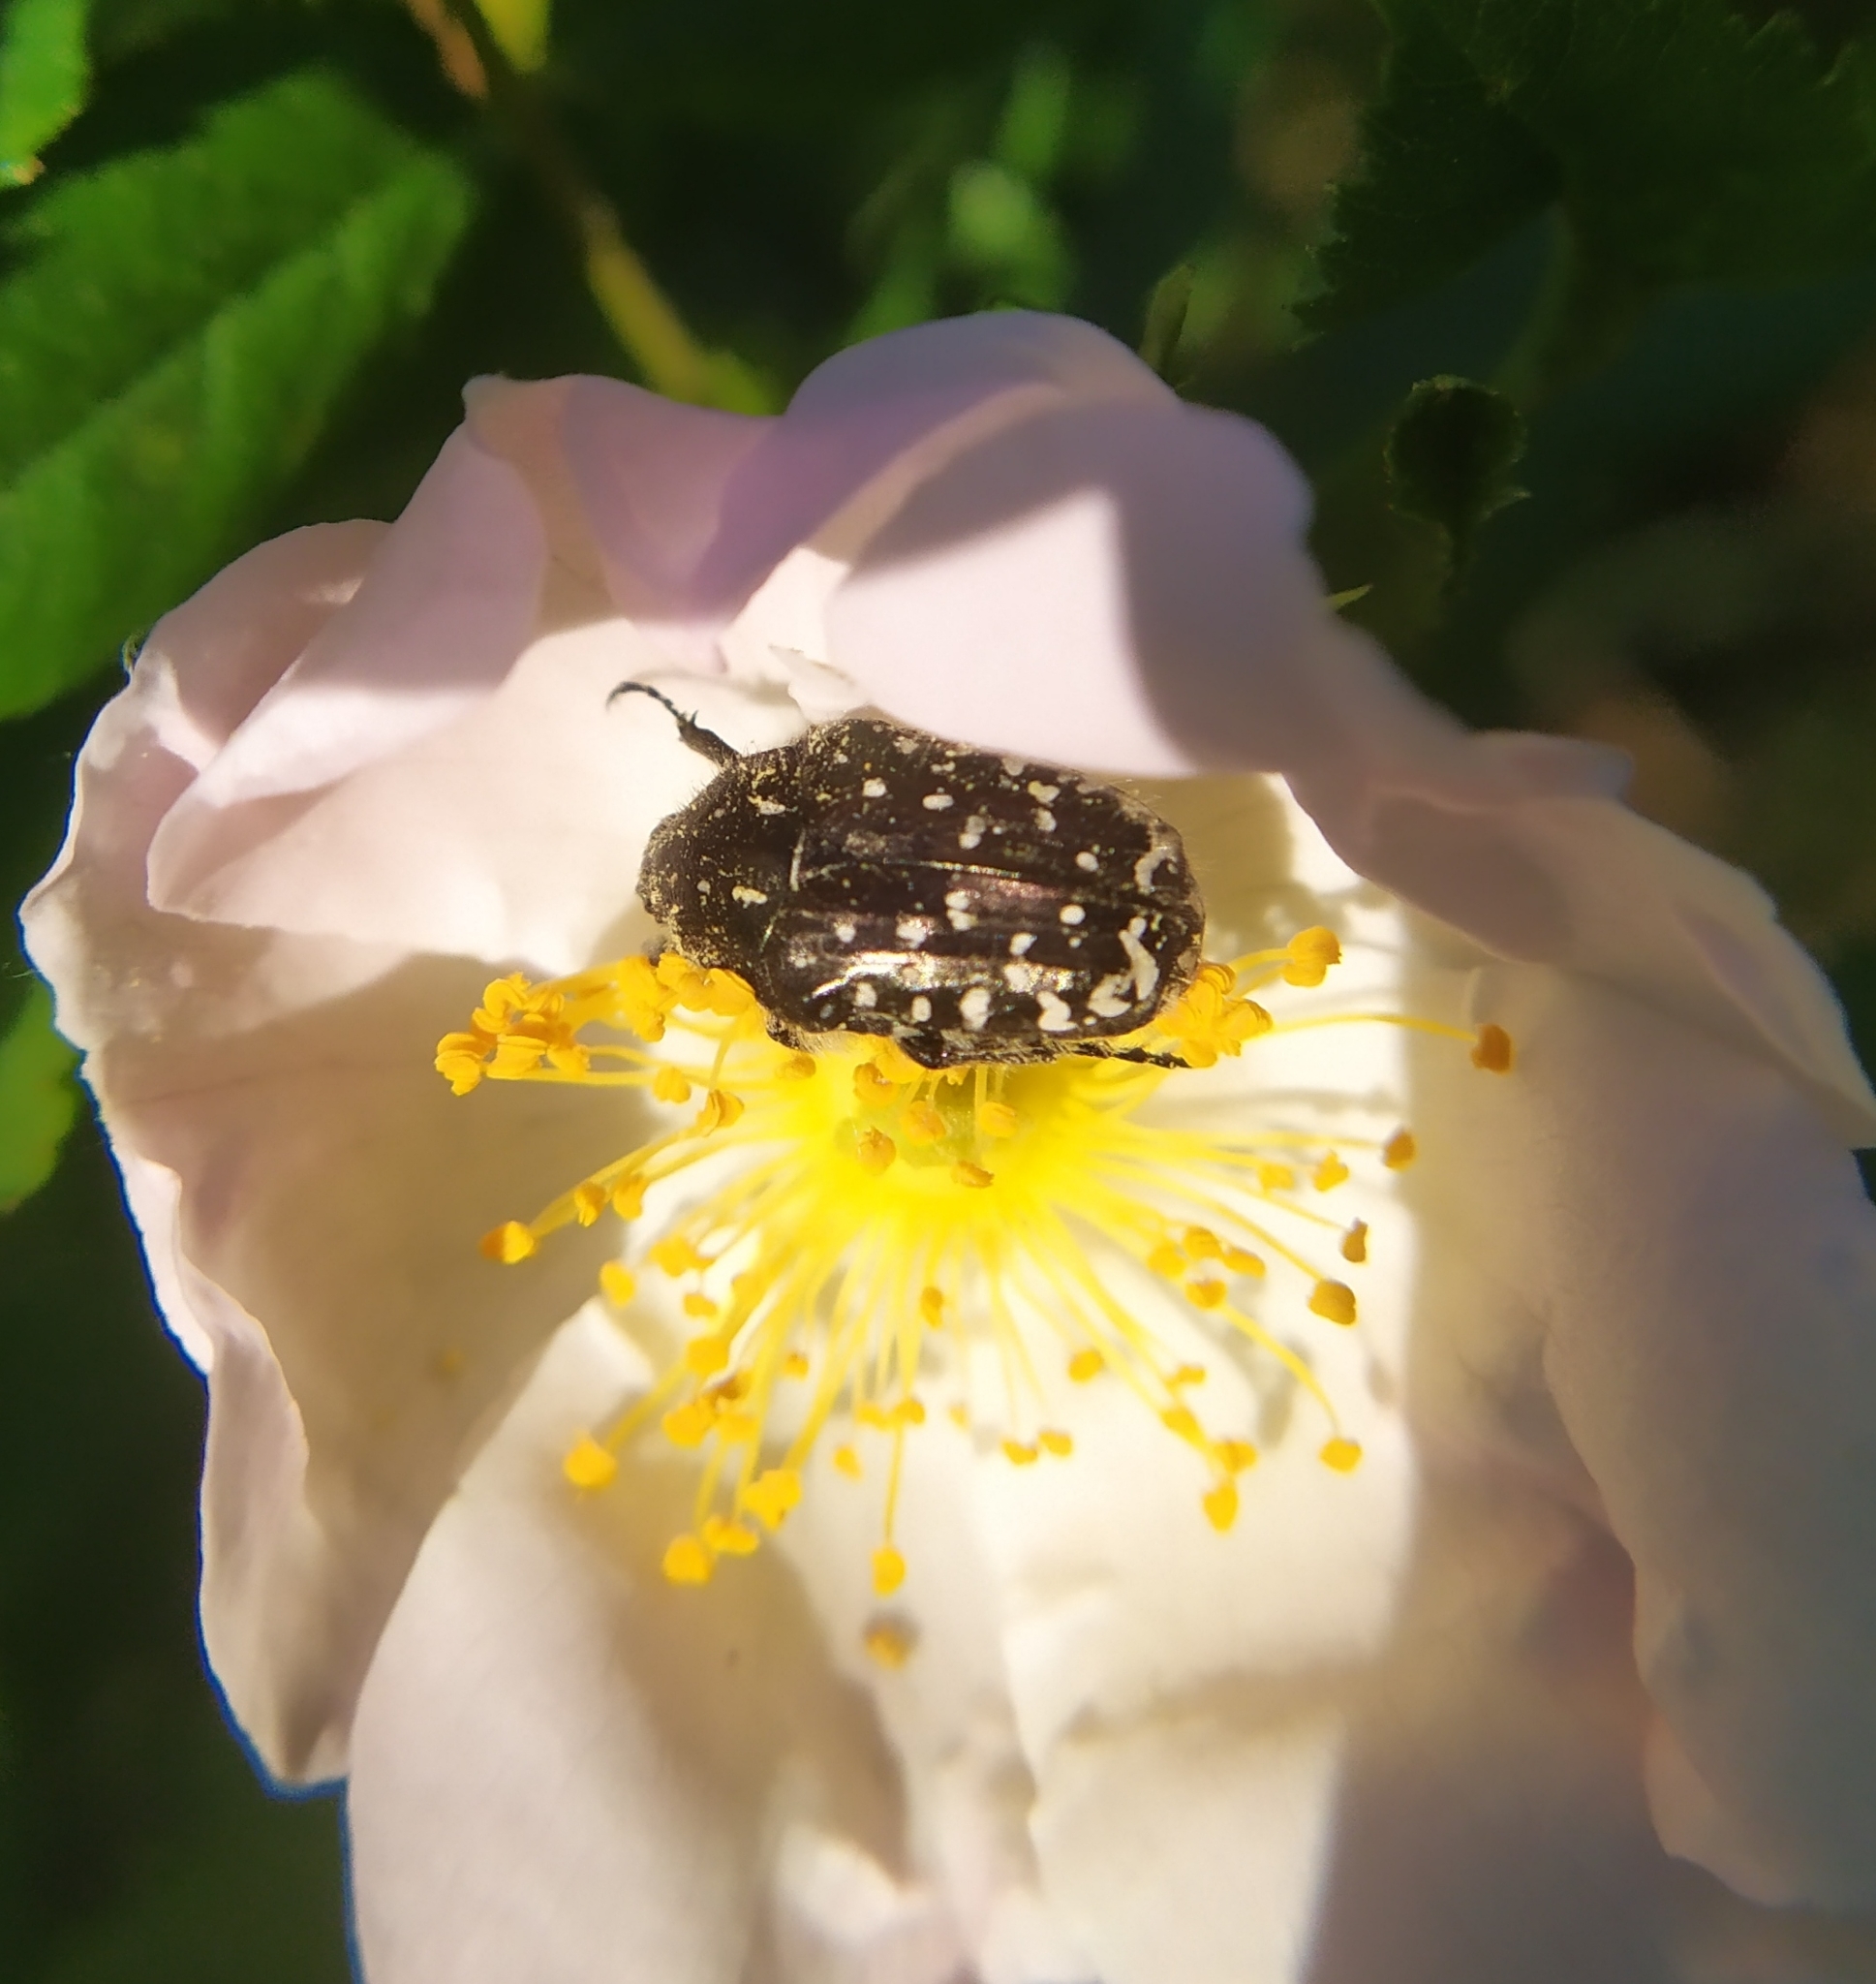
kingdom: Animalia
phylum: Arthropoda
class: Insecta
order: Coleoptera
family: Scarabaeidae
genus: Oxythyrea
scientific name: Oxythyrea funesta
